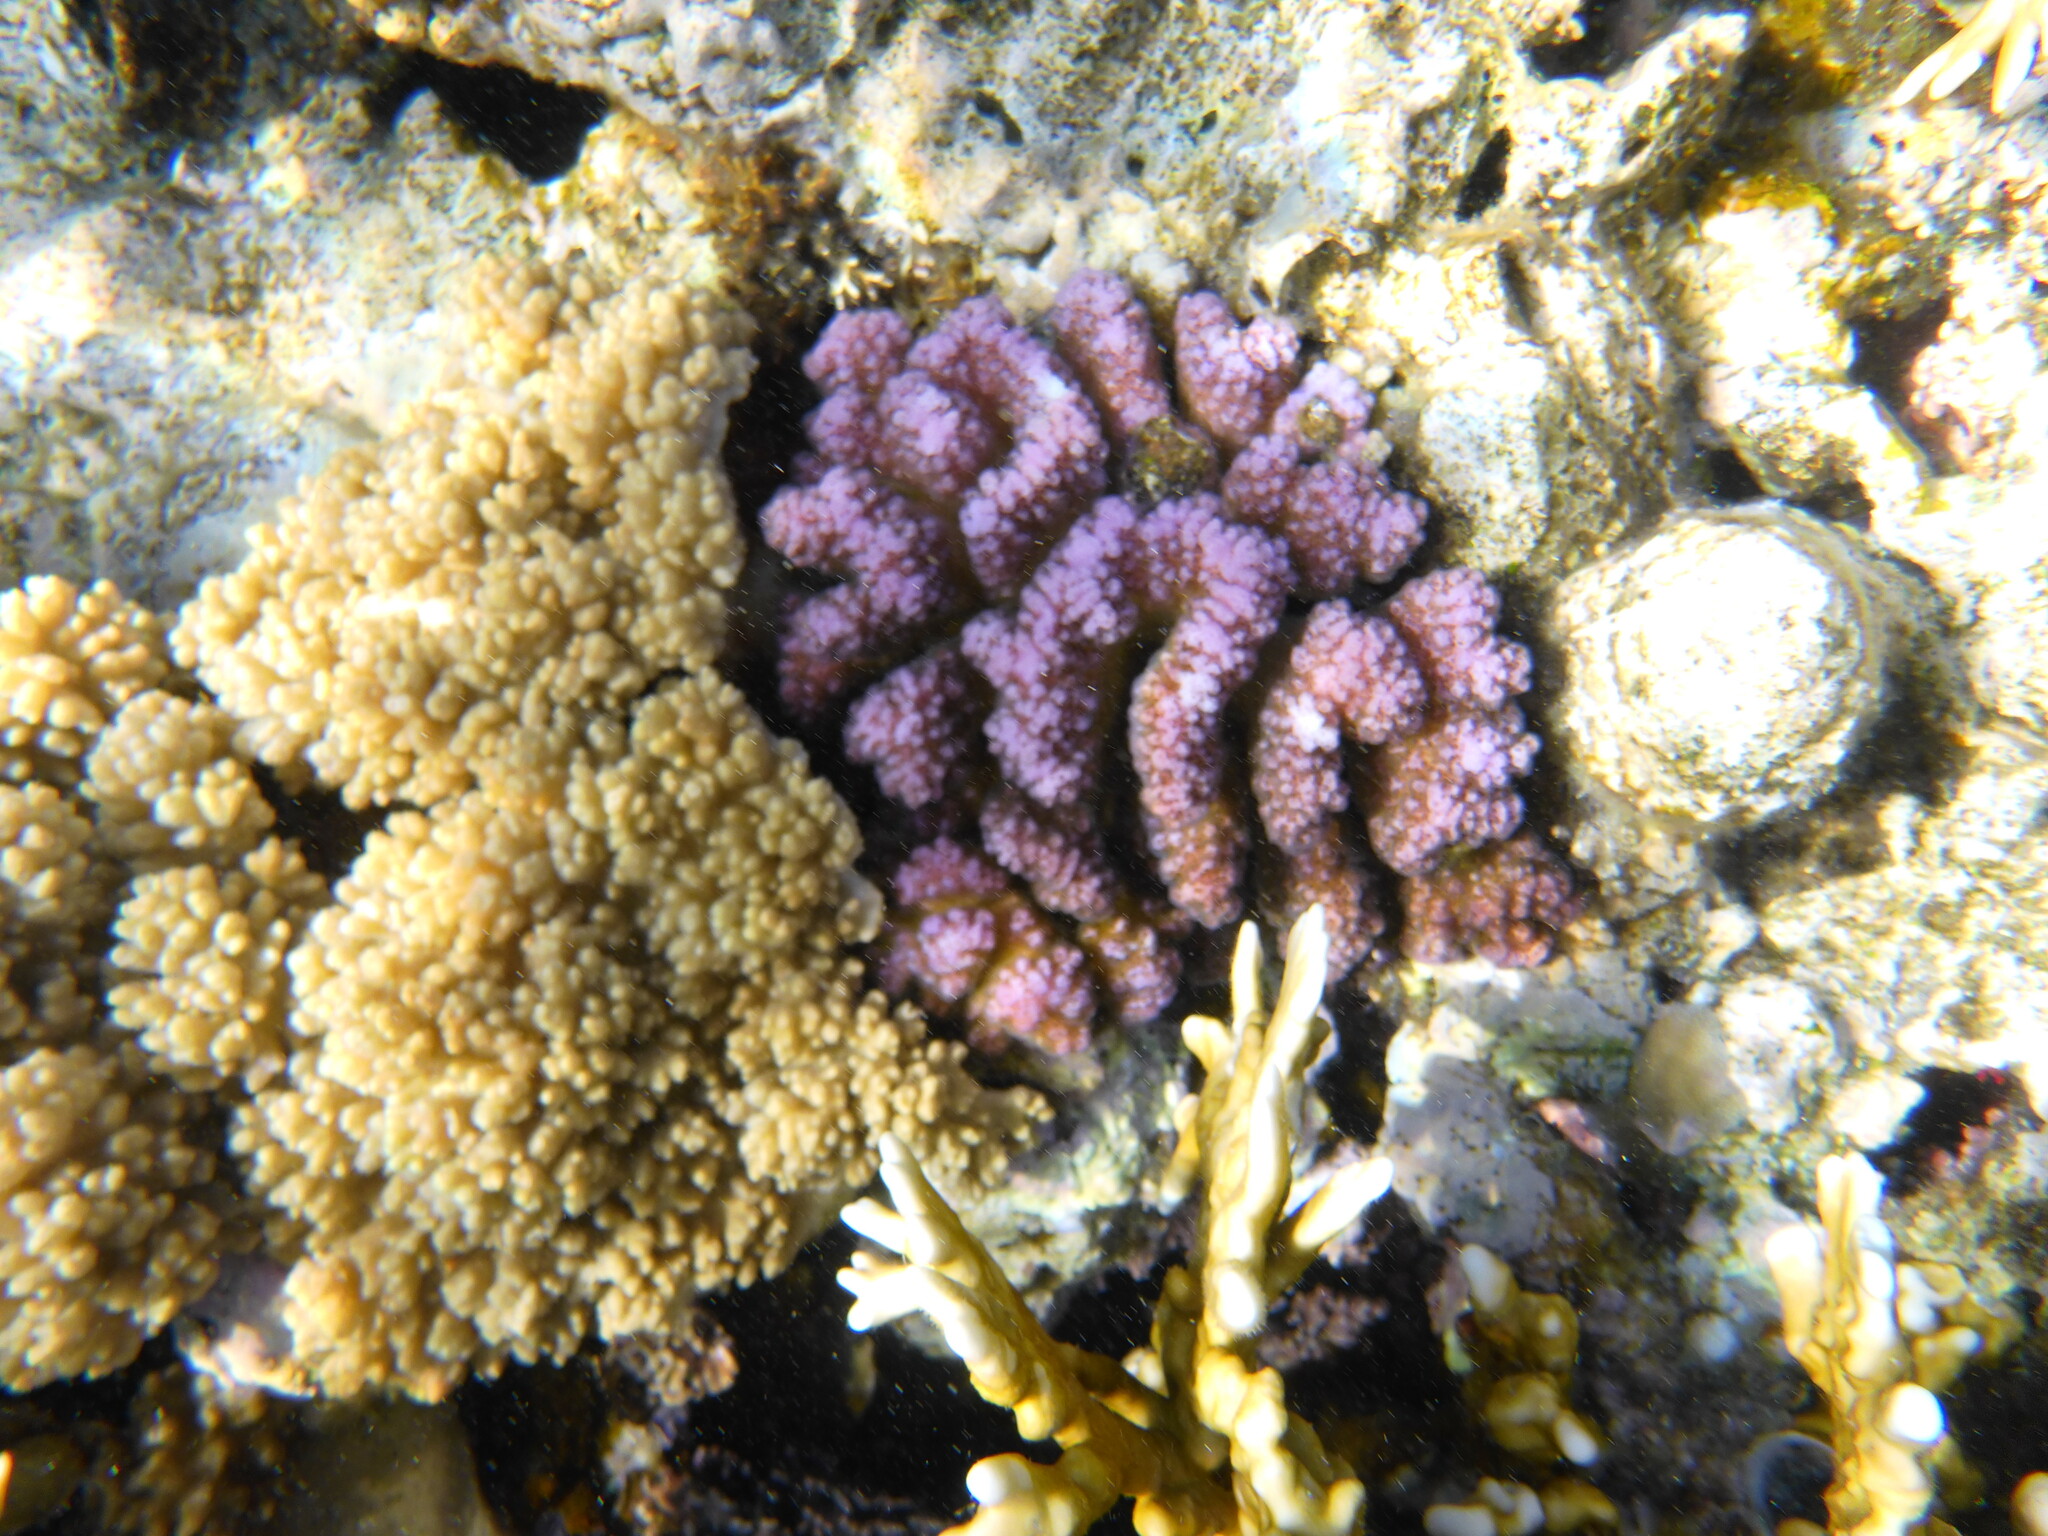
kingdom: Animalia
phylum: Cnidaria
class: Anthozoa
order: Scleractinia
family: Pocilloporidae
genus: Pocillopora
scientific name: Pocillopora verrucosa
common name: Cauliflower coral
